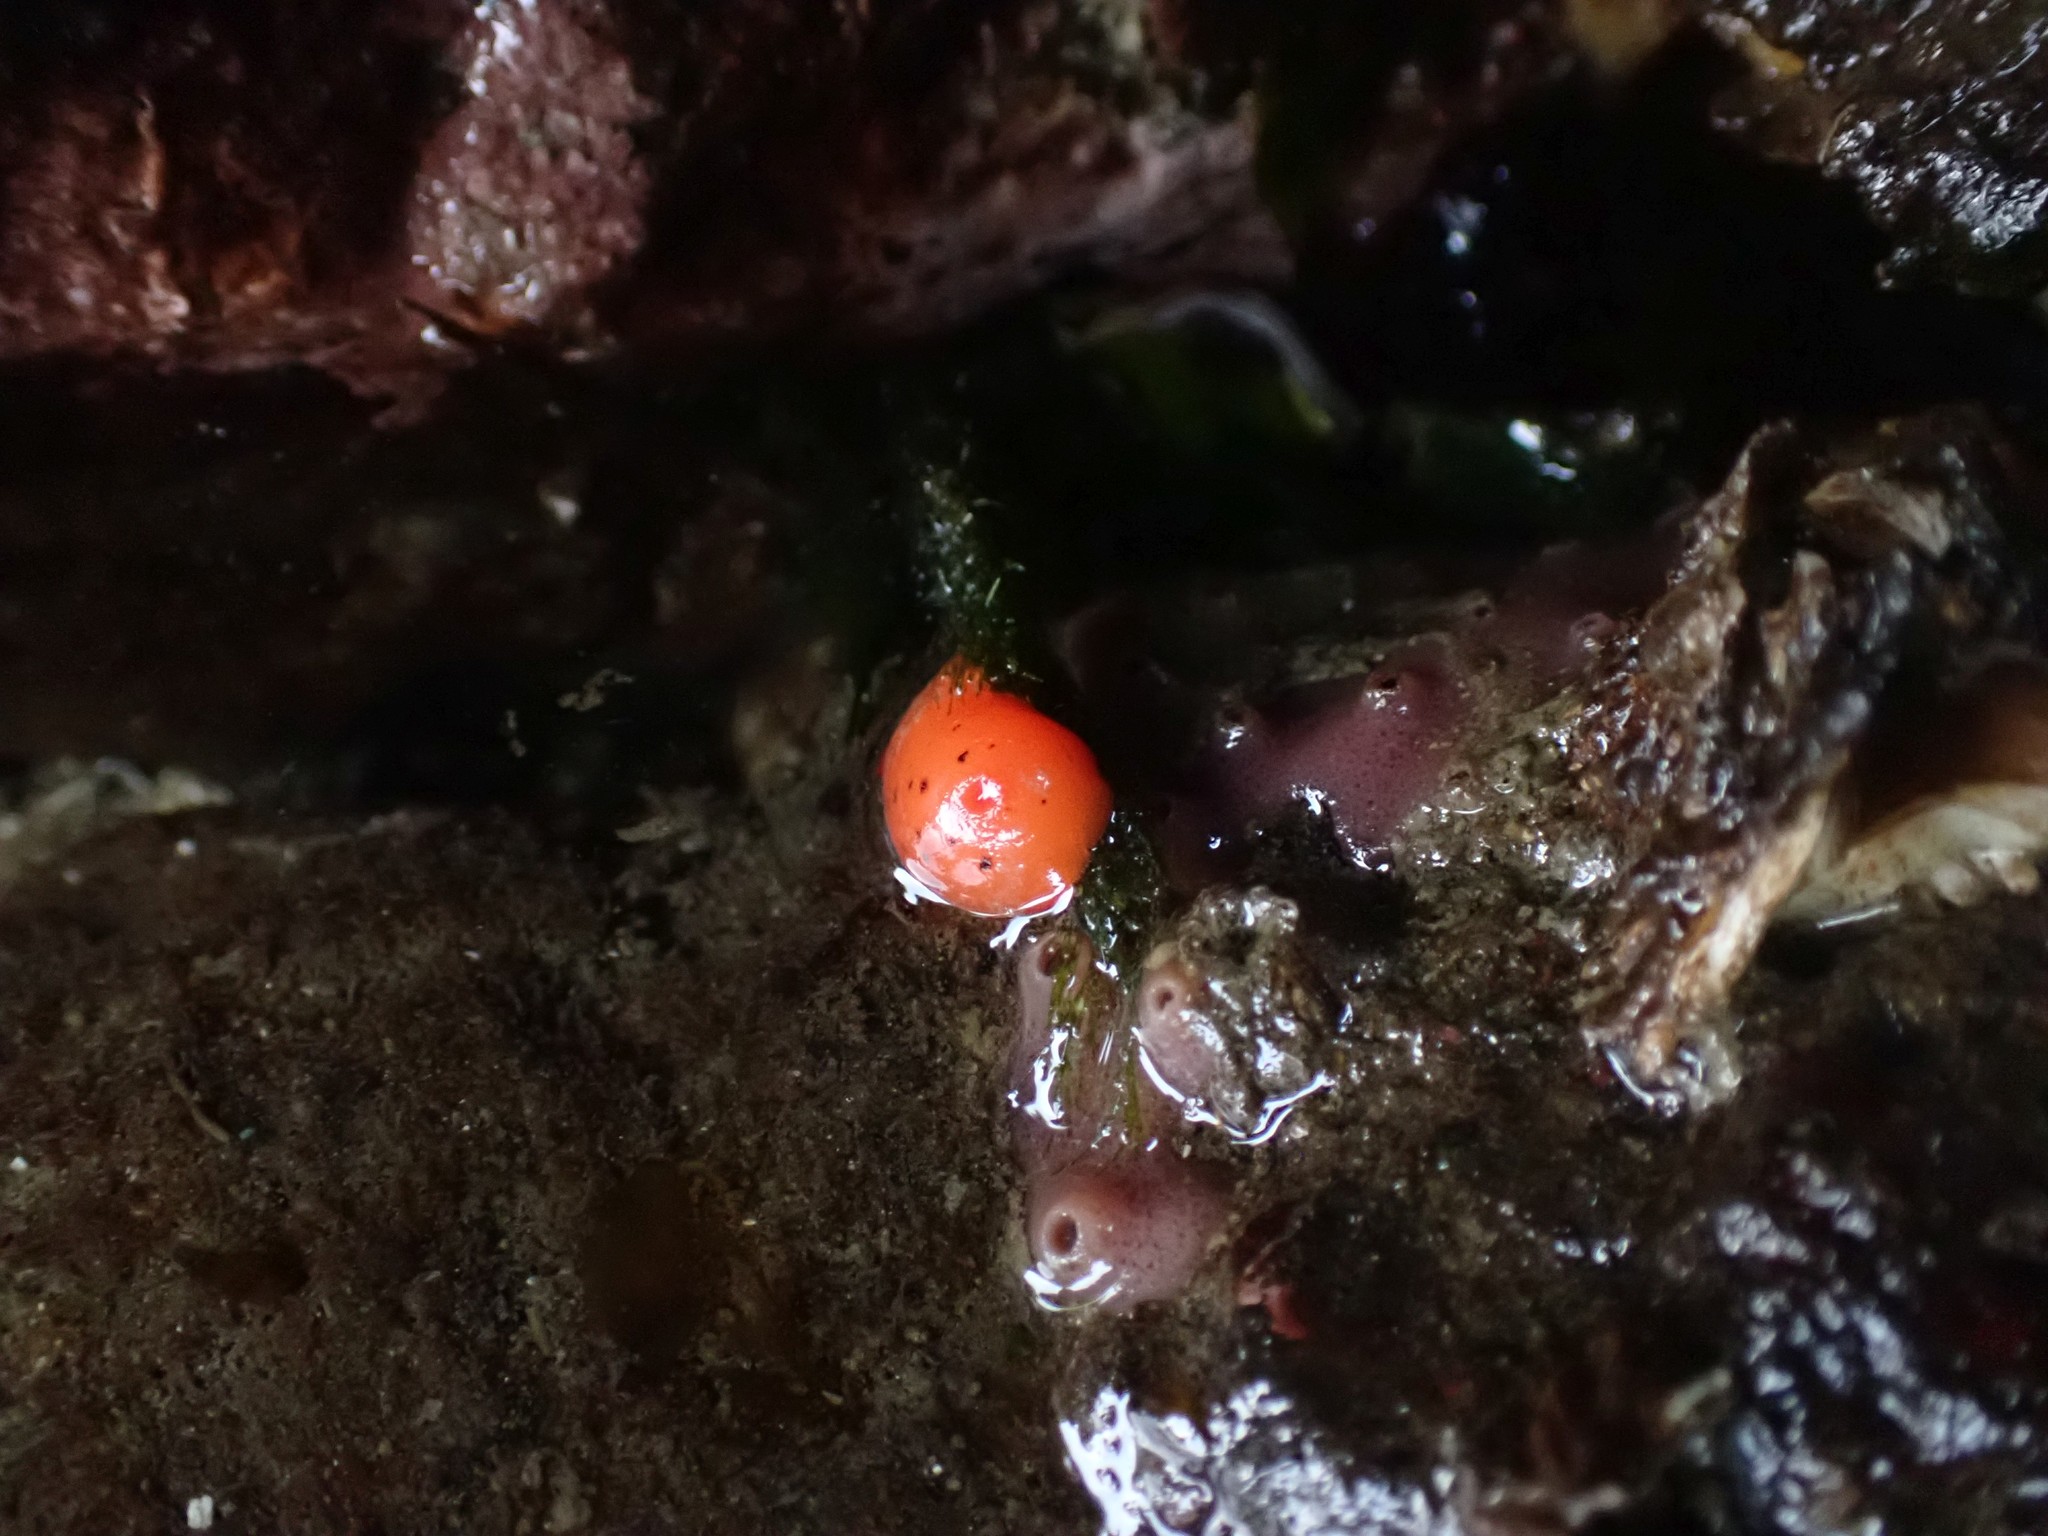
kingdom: Animalia
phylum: Mollusca
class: Gastropoda
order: Nudibranchia
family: Discodorididae
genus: Rostanga
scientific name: Rostanga pulchra
